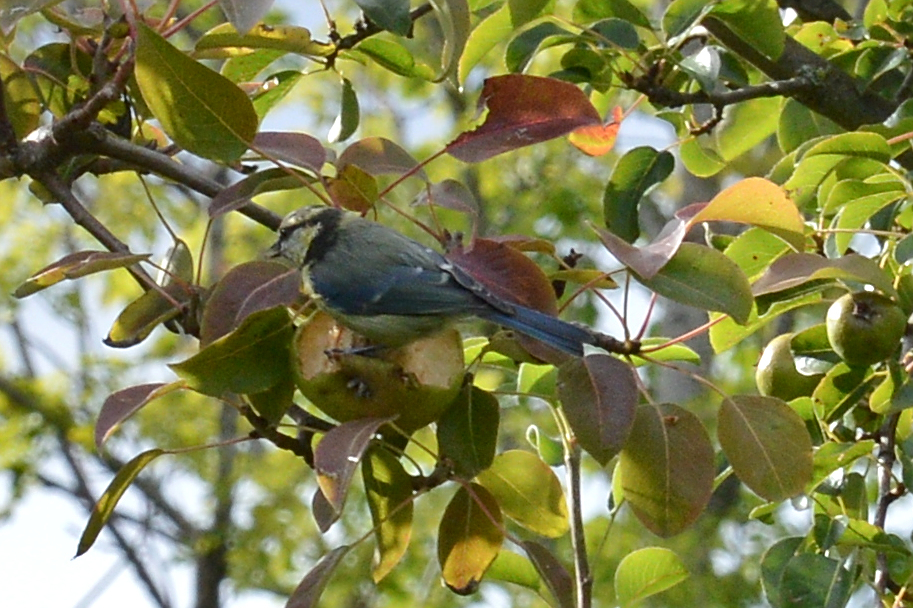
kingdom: Animalia
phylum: Chordata
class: Aves
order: Passeriformes
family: Paridae
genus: Cyanistes
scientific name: Cyanistes caeruleus
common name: Eurasian blue tit
